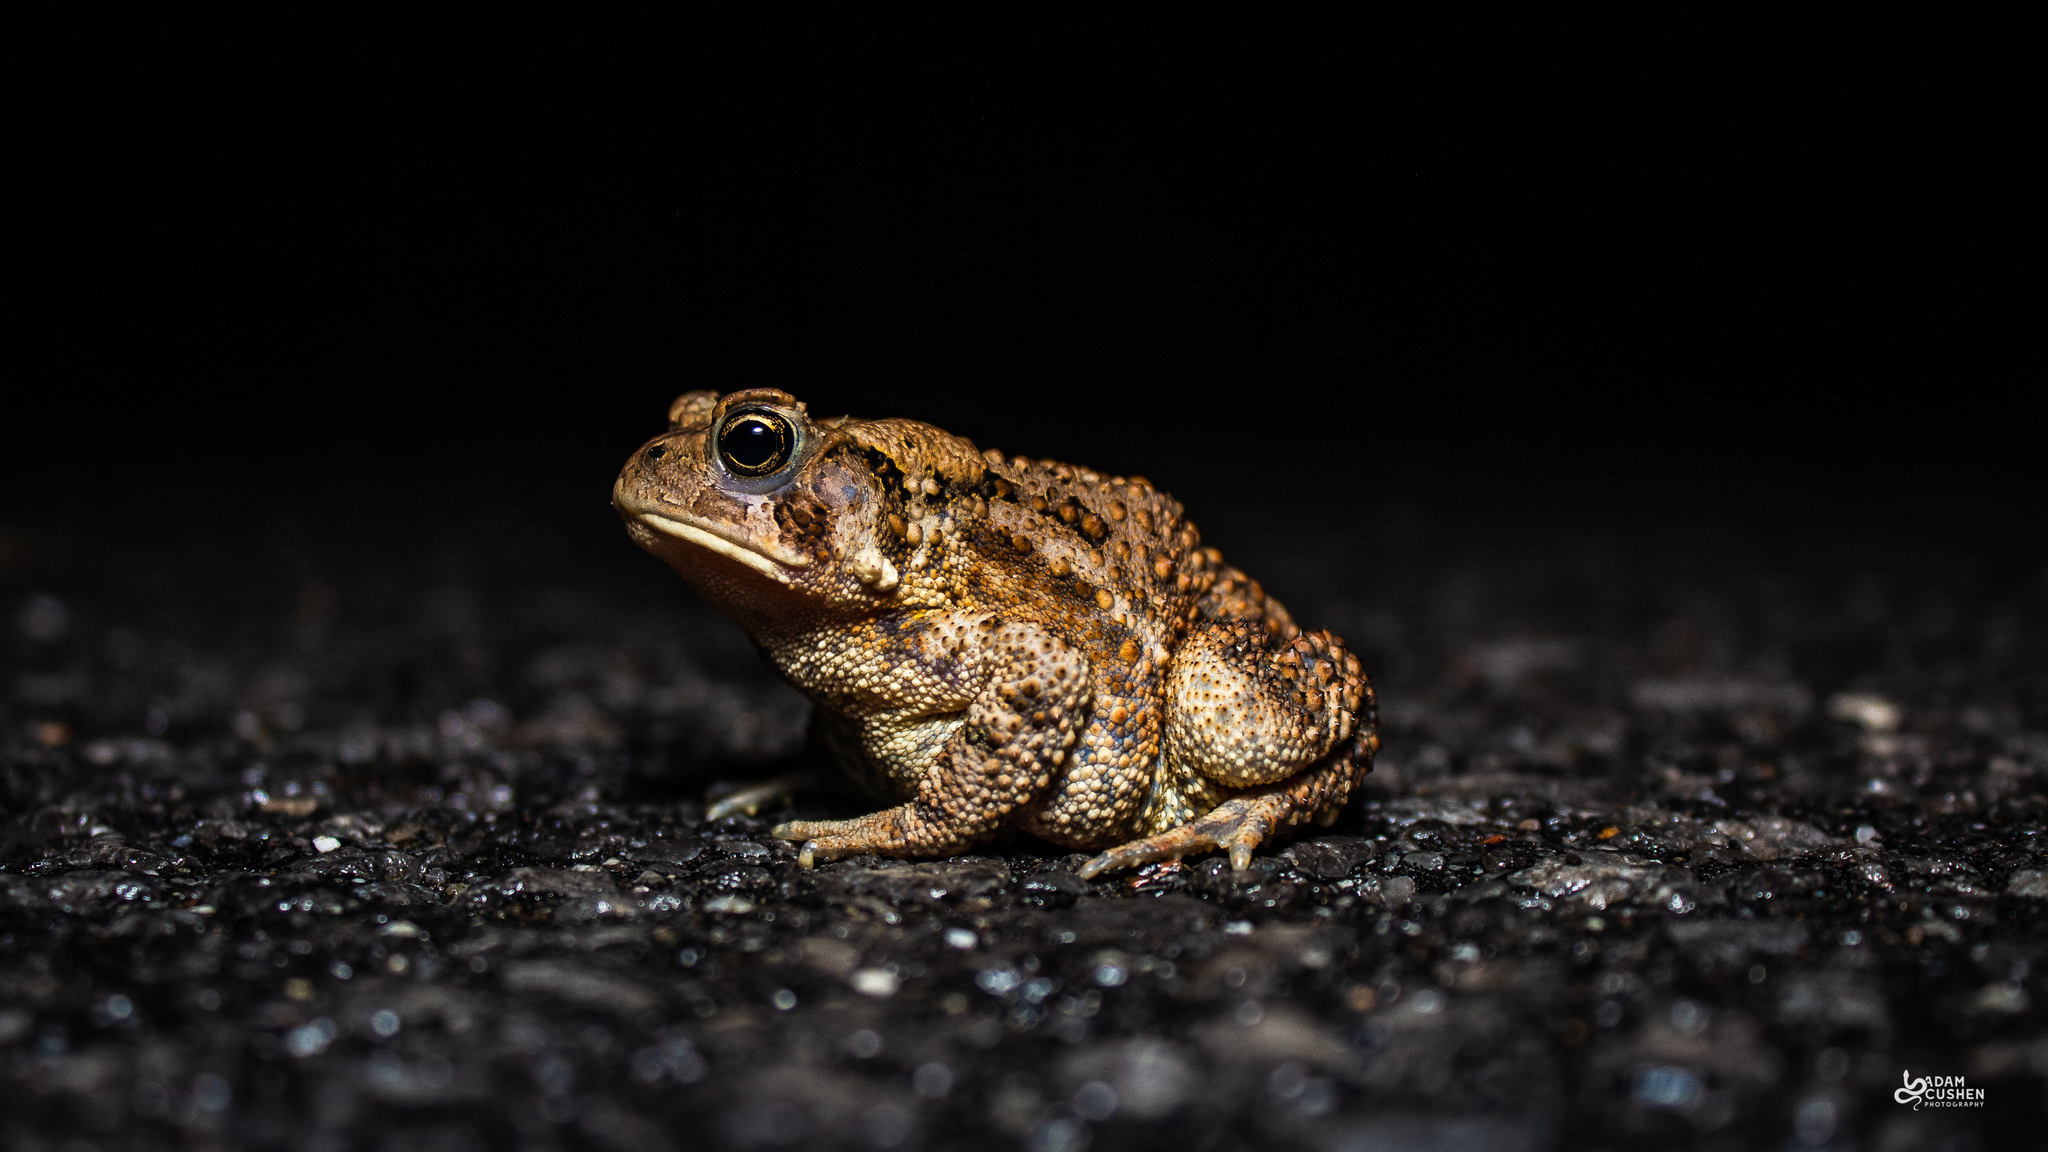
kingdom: Animalia
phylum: Chordata
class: Amphibia
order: Anura
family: Bufonidae
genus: Anaxyrus
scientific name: Anaxyrus americanus
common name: American toad
